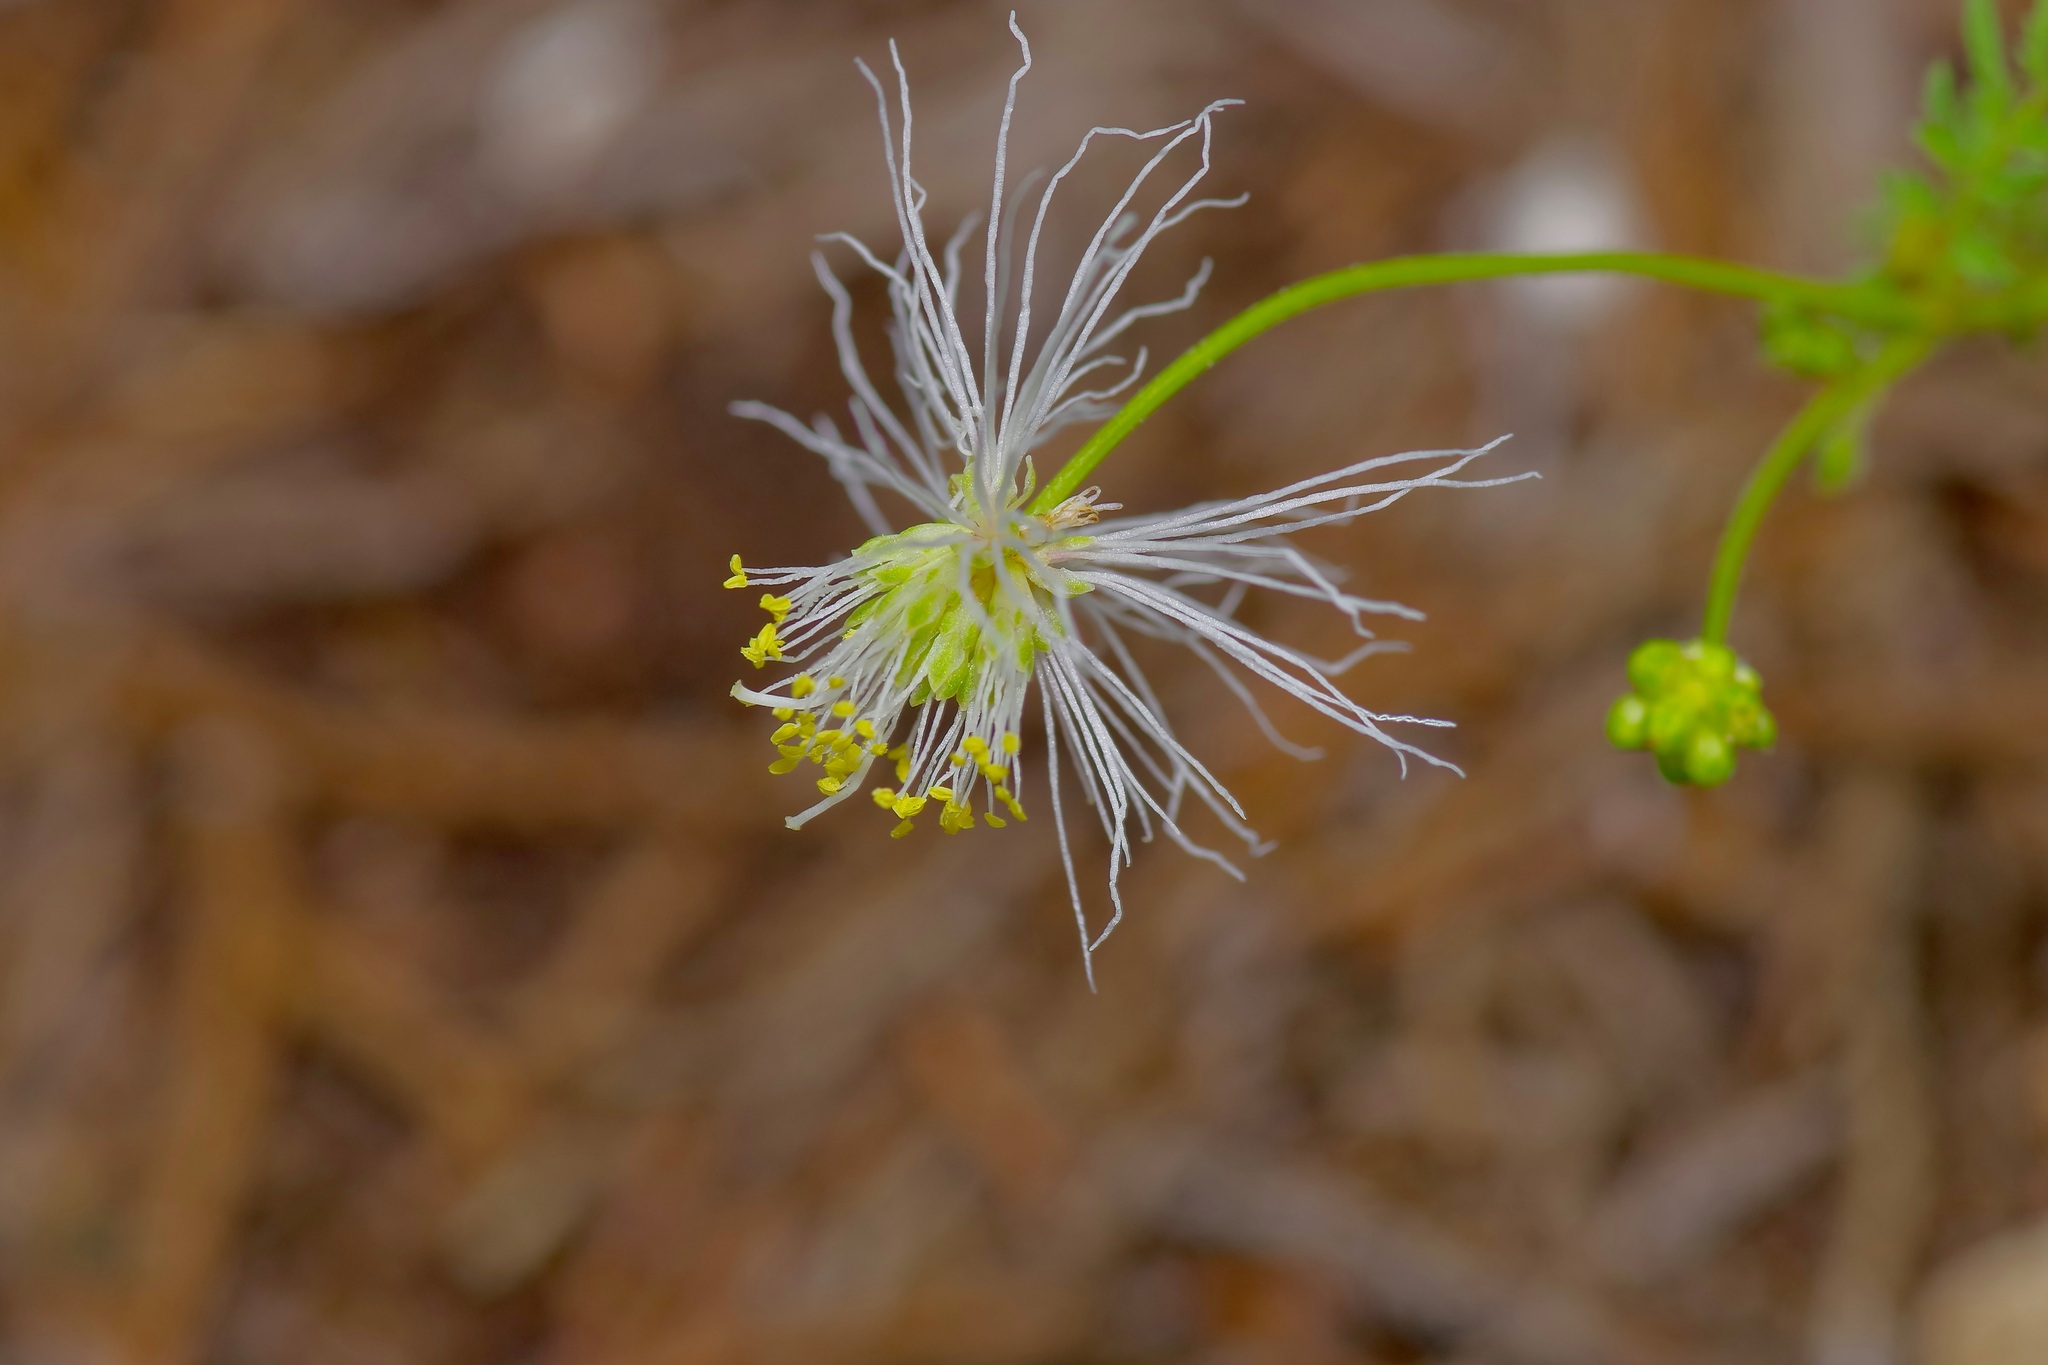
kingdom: Plantae
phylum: Tracheophyta
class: Magnoliopsida
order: Fabales
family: Fabaceae
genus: Desmanthus
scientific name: Desmanthus velutinus
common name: Velvet bundle-flower
